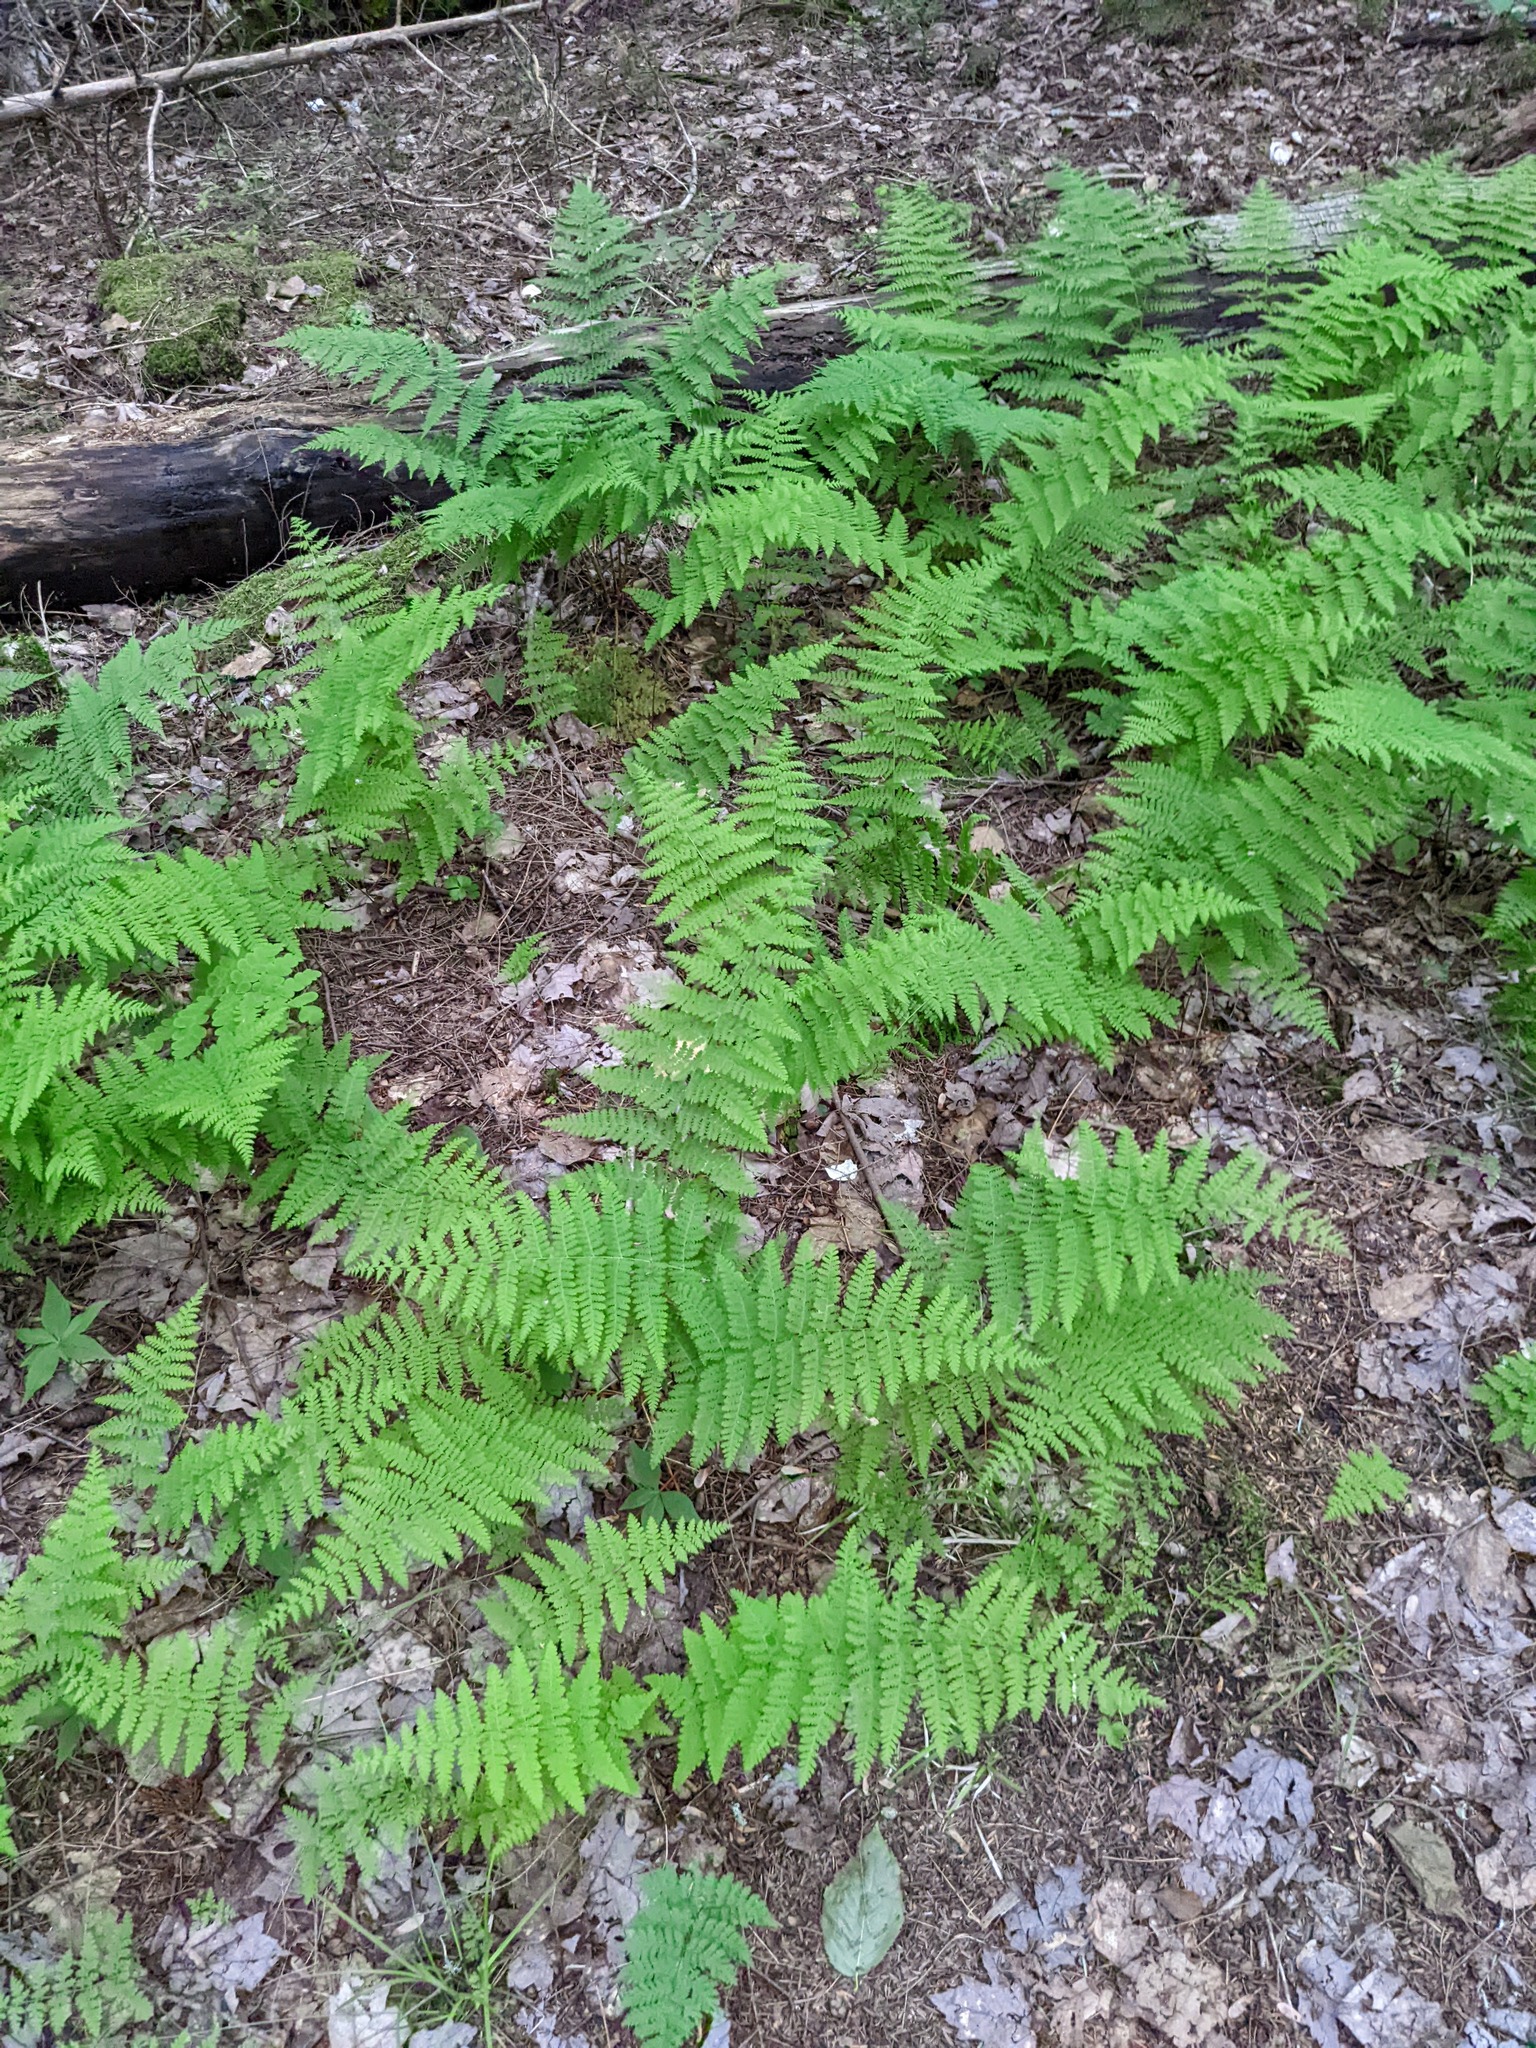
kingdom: Plantae
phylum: Tracheophyta
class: Polypodiopsida
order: Polypodiales
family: Dennstaedtiaceae
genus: Sitobolium
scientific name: Sitobolium punctilobum
